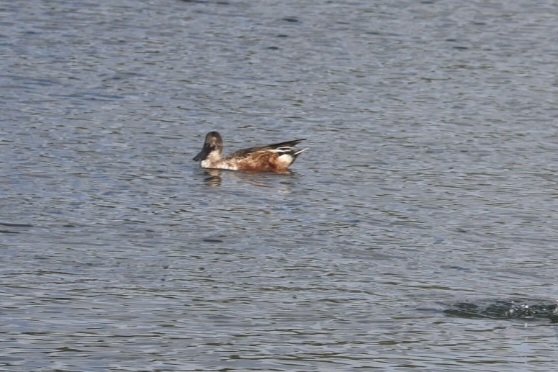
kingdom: Animalia
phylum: Chordata
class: Aves
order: Anseriformes
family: Anatidae
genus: Spatula
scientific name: Spatula clypeata
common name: Northern shoveler
